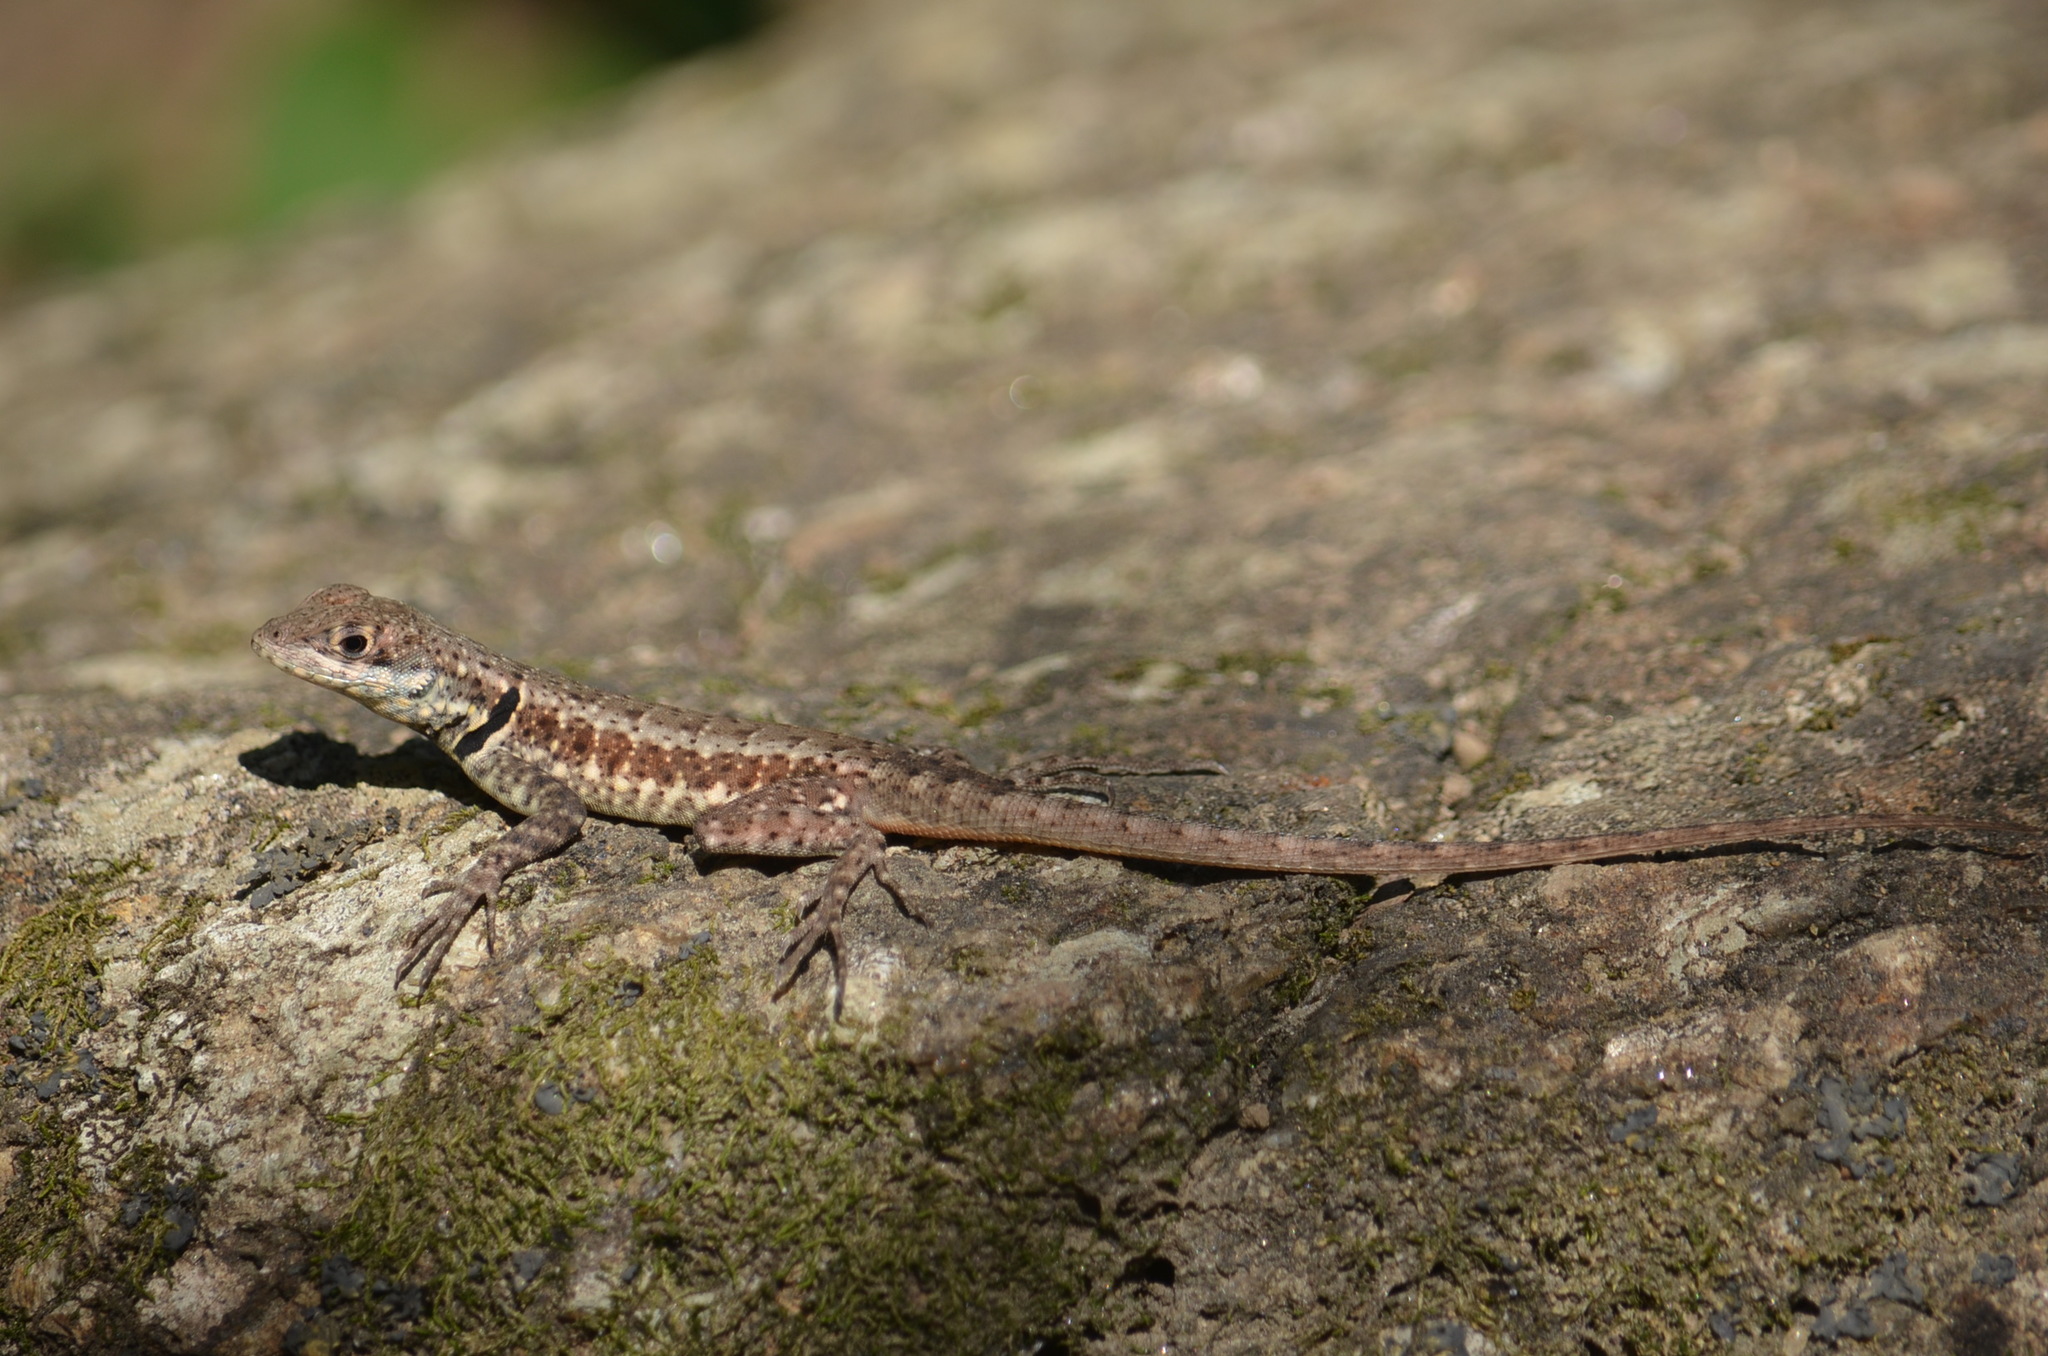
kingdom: Animalia
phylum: Chordata
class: Squamata
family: Tropiduridae
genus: Tropidurus
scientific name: Tropidurus torquatus
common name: Amazon lava lizard
